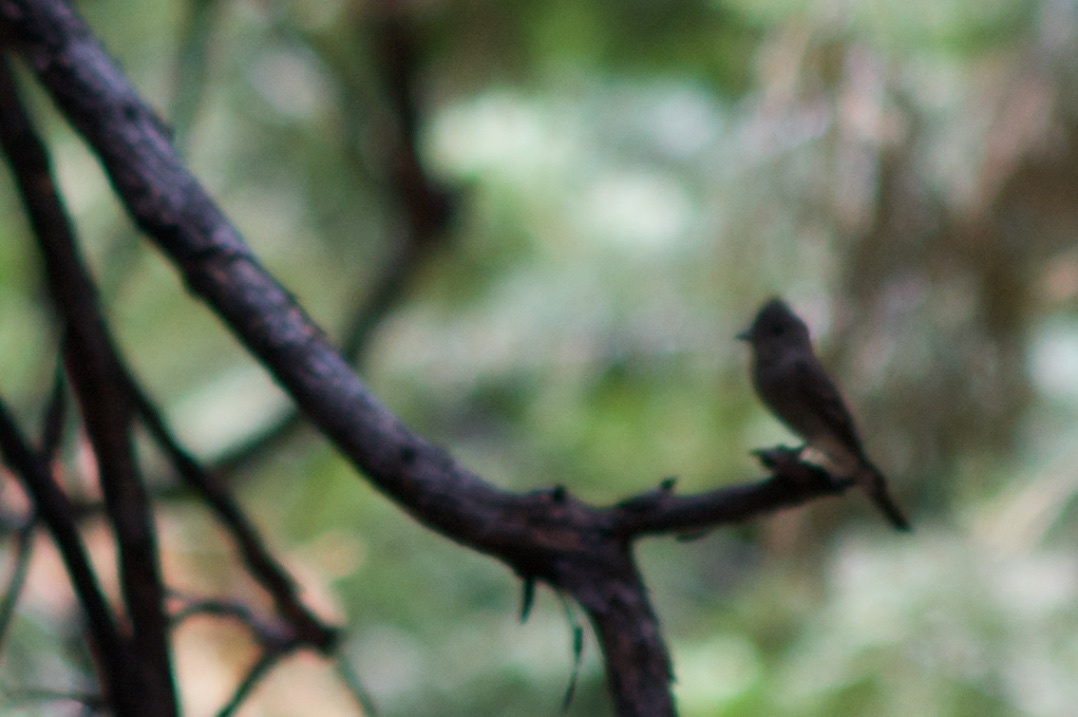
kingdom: Animalia
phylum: Chordata
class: Aves
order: Passeriformes
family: Tyrannidae
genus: Sayornis
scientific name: Sayornis nigricans
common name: Black phoebe
